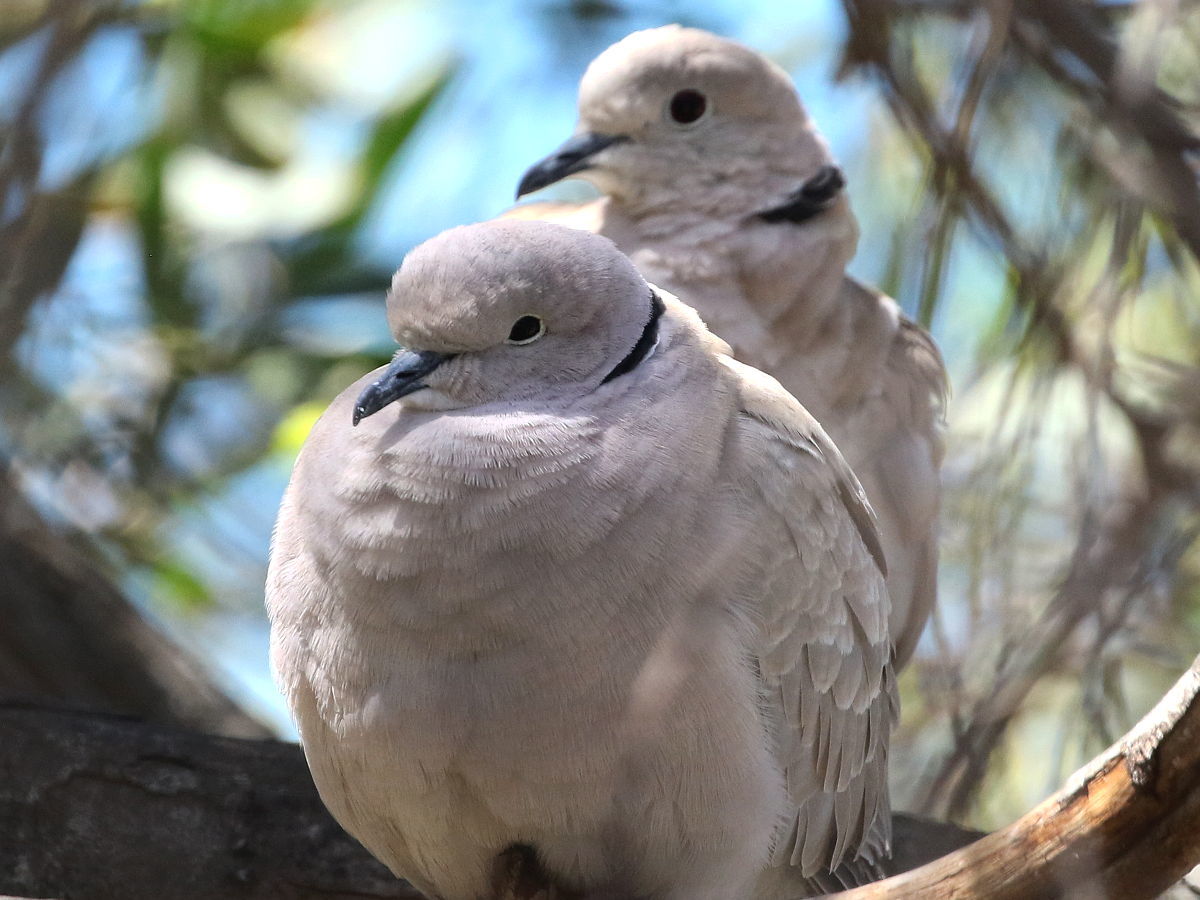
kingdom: Animalia
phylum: Chordata
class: Aves
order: Columbiformes
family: Columbidae
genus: Streptopelia
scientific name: Streptopelia decaocto
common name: Eurasian collared dove
